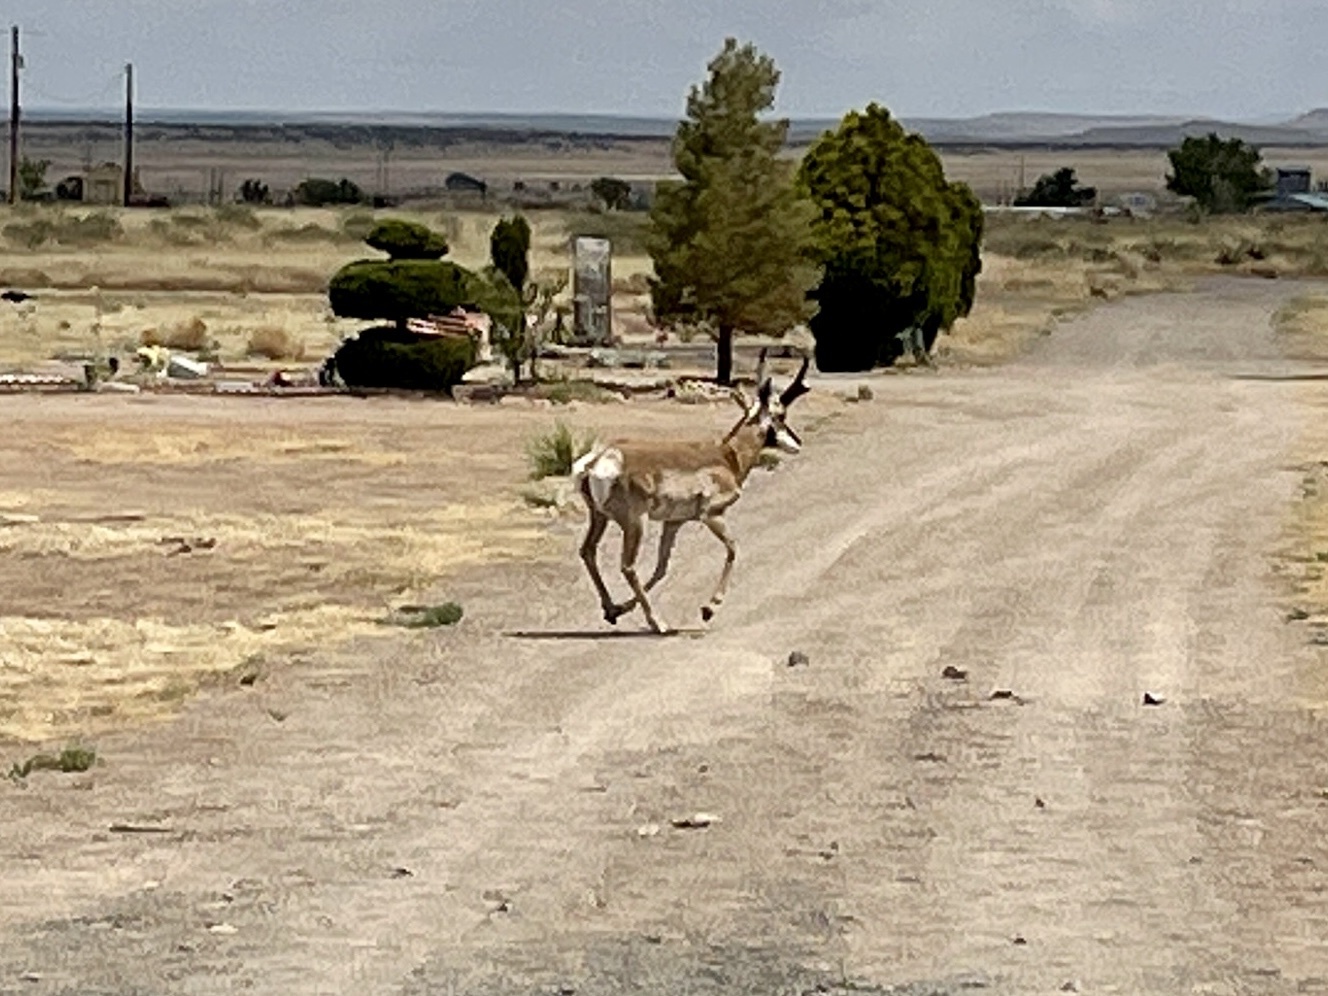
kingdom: Animalia
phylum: Chordata
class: Mammalia
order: Artiodactyla
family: Antilocapridae
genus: Antilocapra
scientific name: Antilocapra americana
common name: Pronghorn
